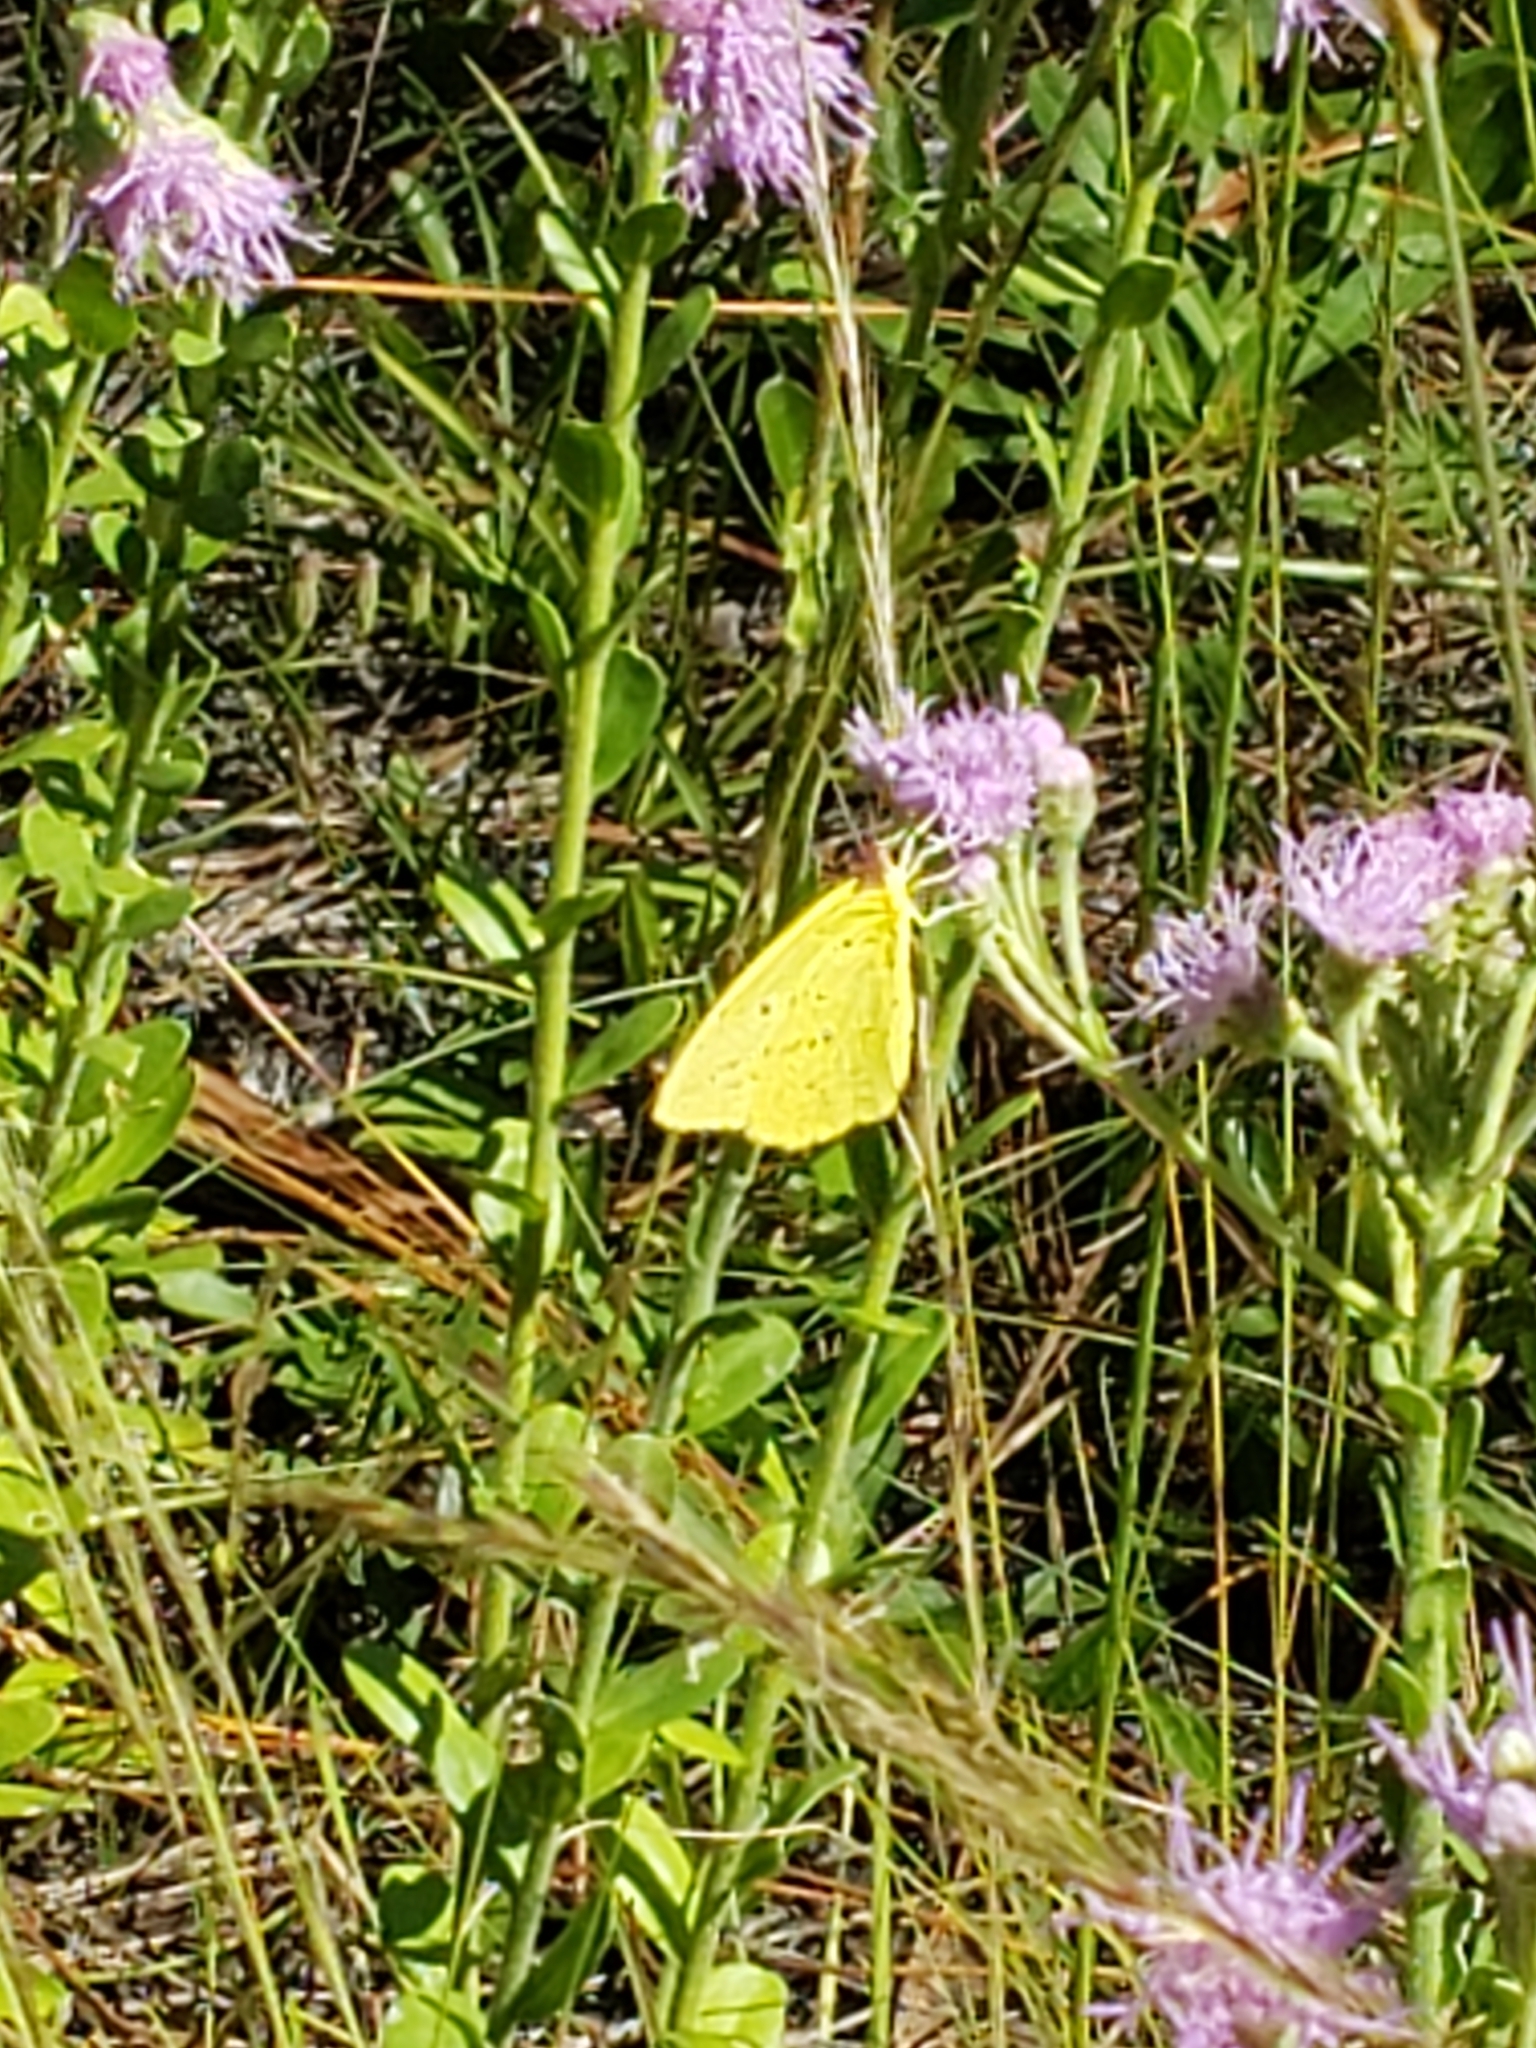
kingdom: Animalia
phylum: Arthropoda
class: Insecta
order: Lepidoptera
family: Pieridae
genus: Phoebis
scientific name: Phoebis sennae
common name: Cloudless sulphur
